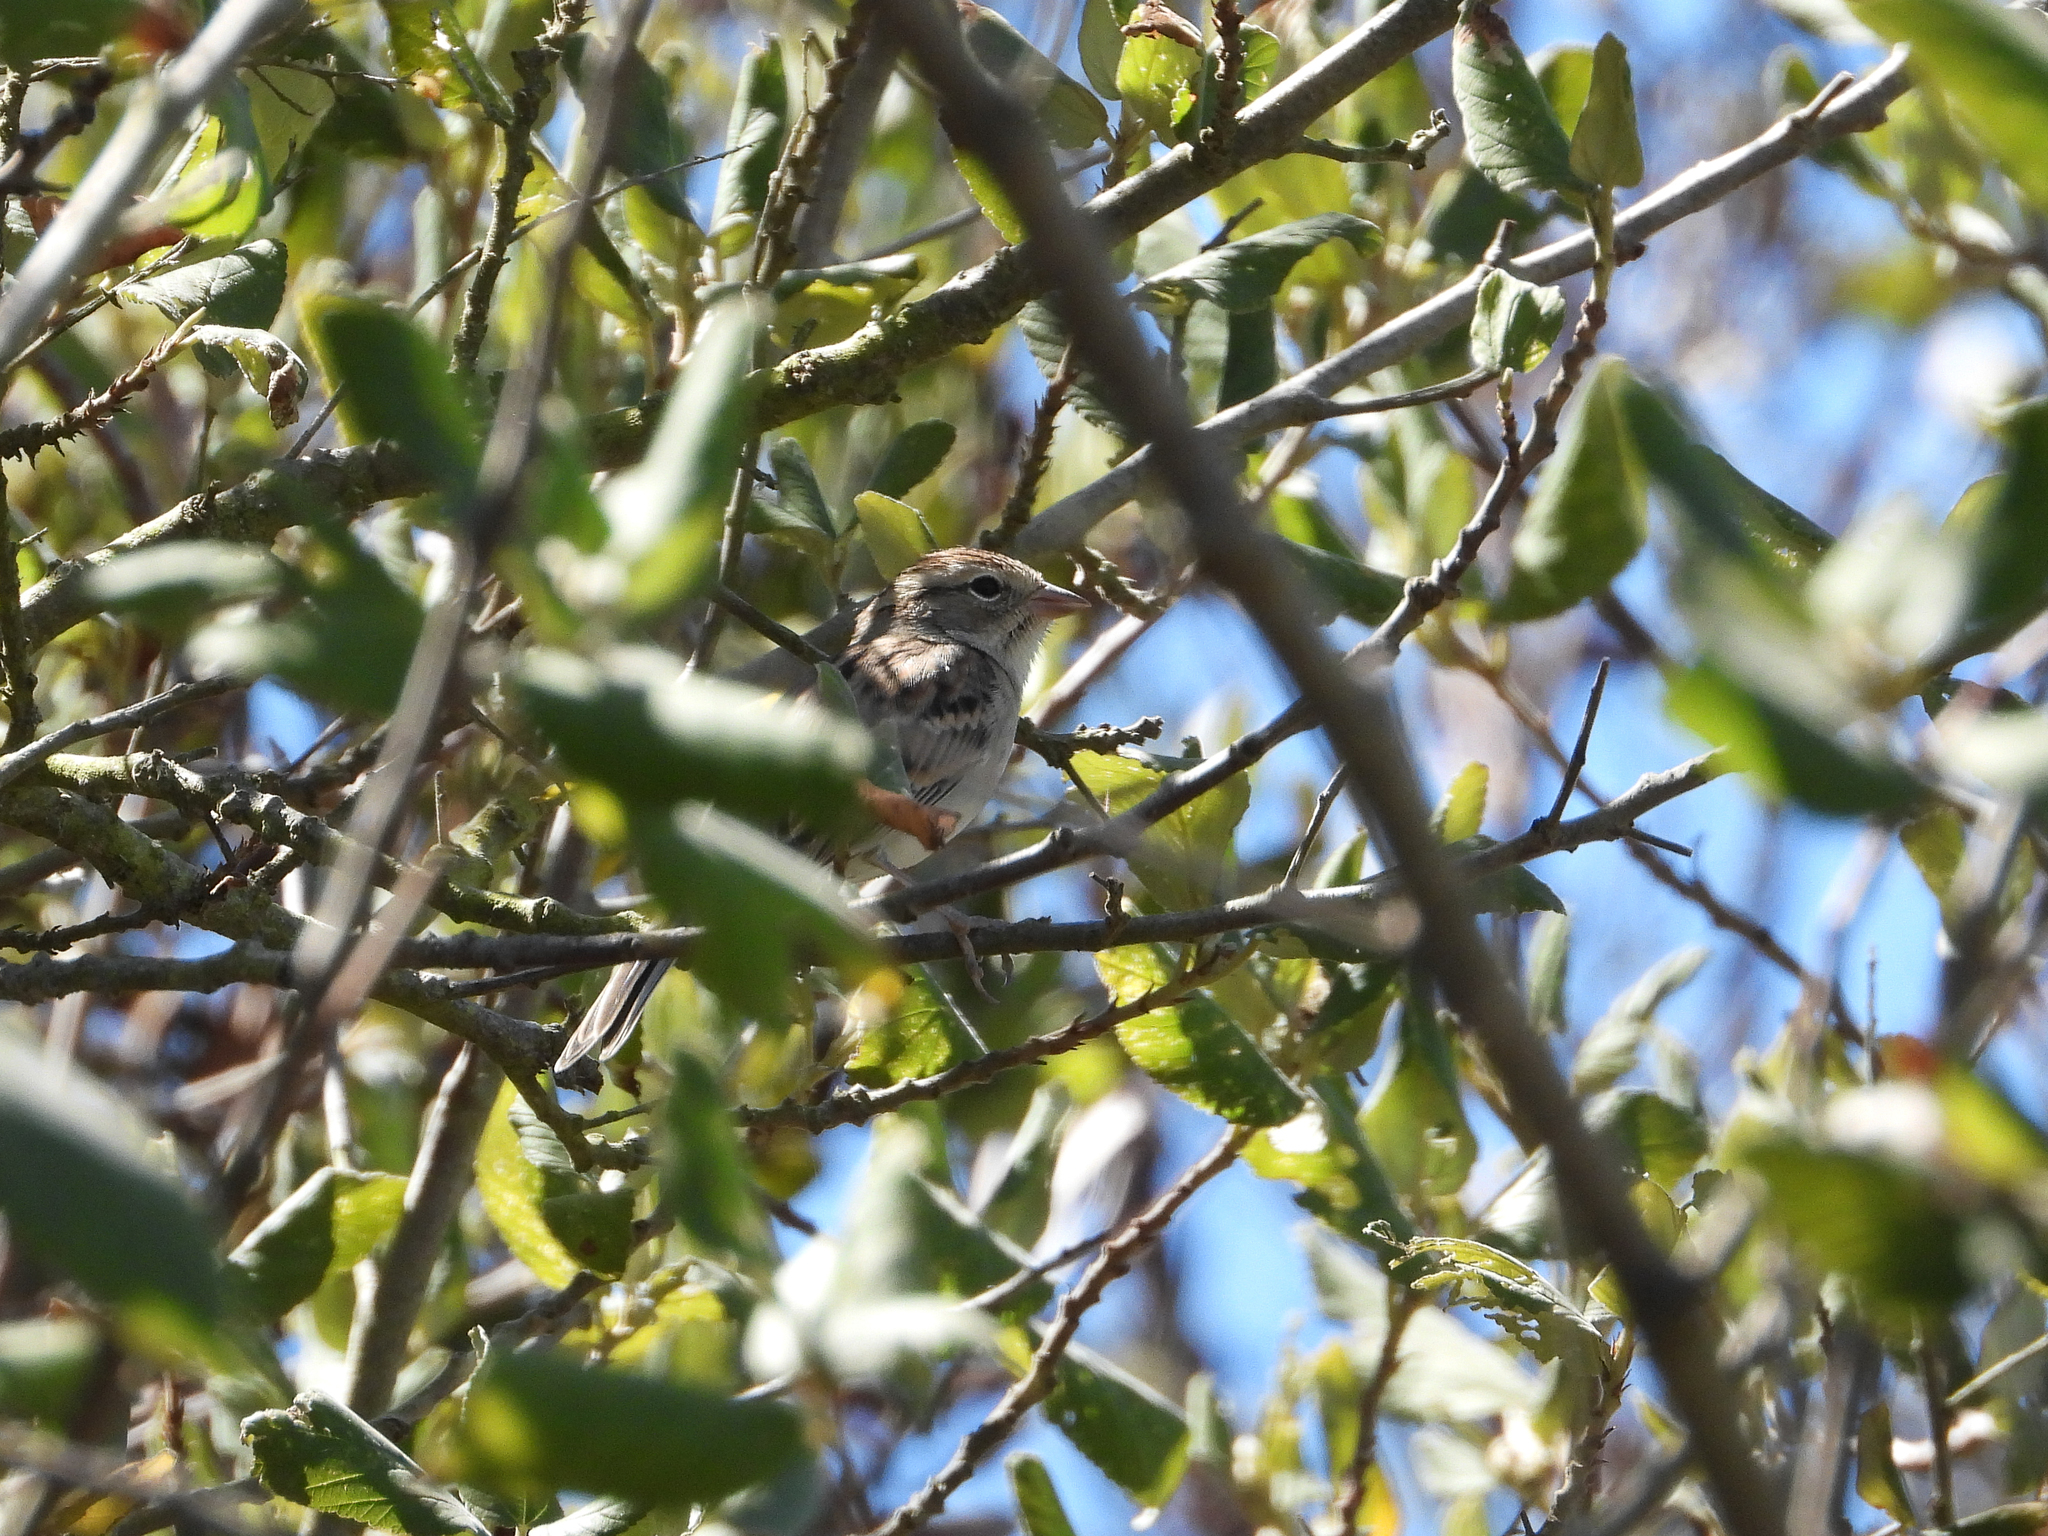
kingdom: Animalia
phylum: Chordata
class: Aves
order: Passeriformes
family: Passerellidae
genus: Spizella
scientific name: Spizella passerina
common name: Chipping sparrow
